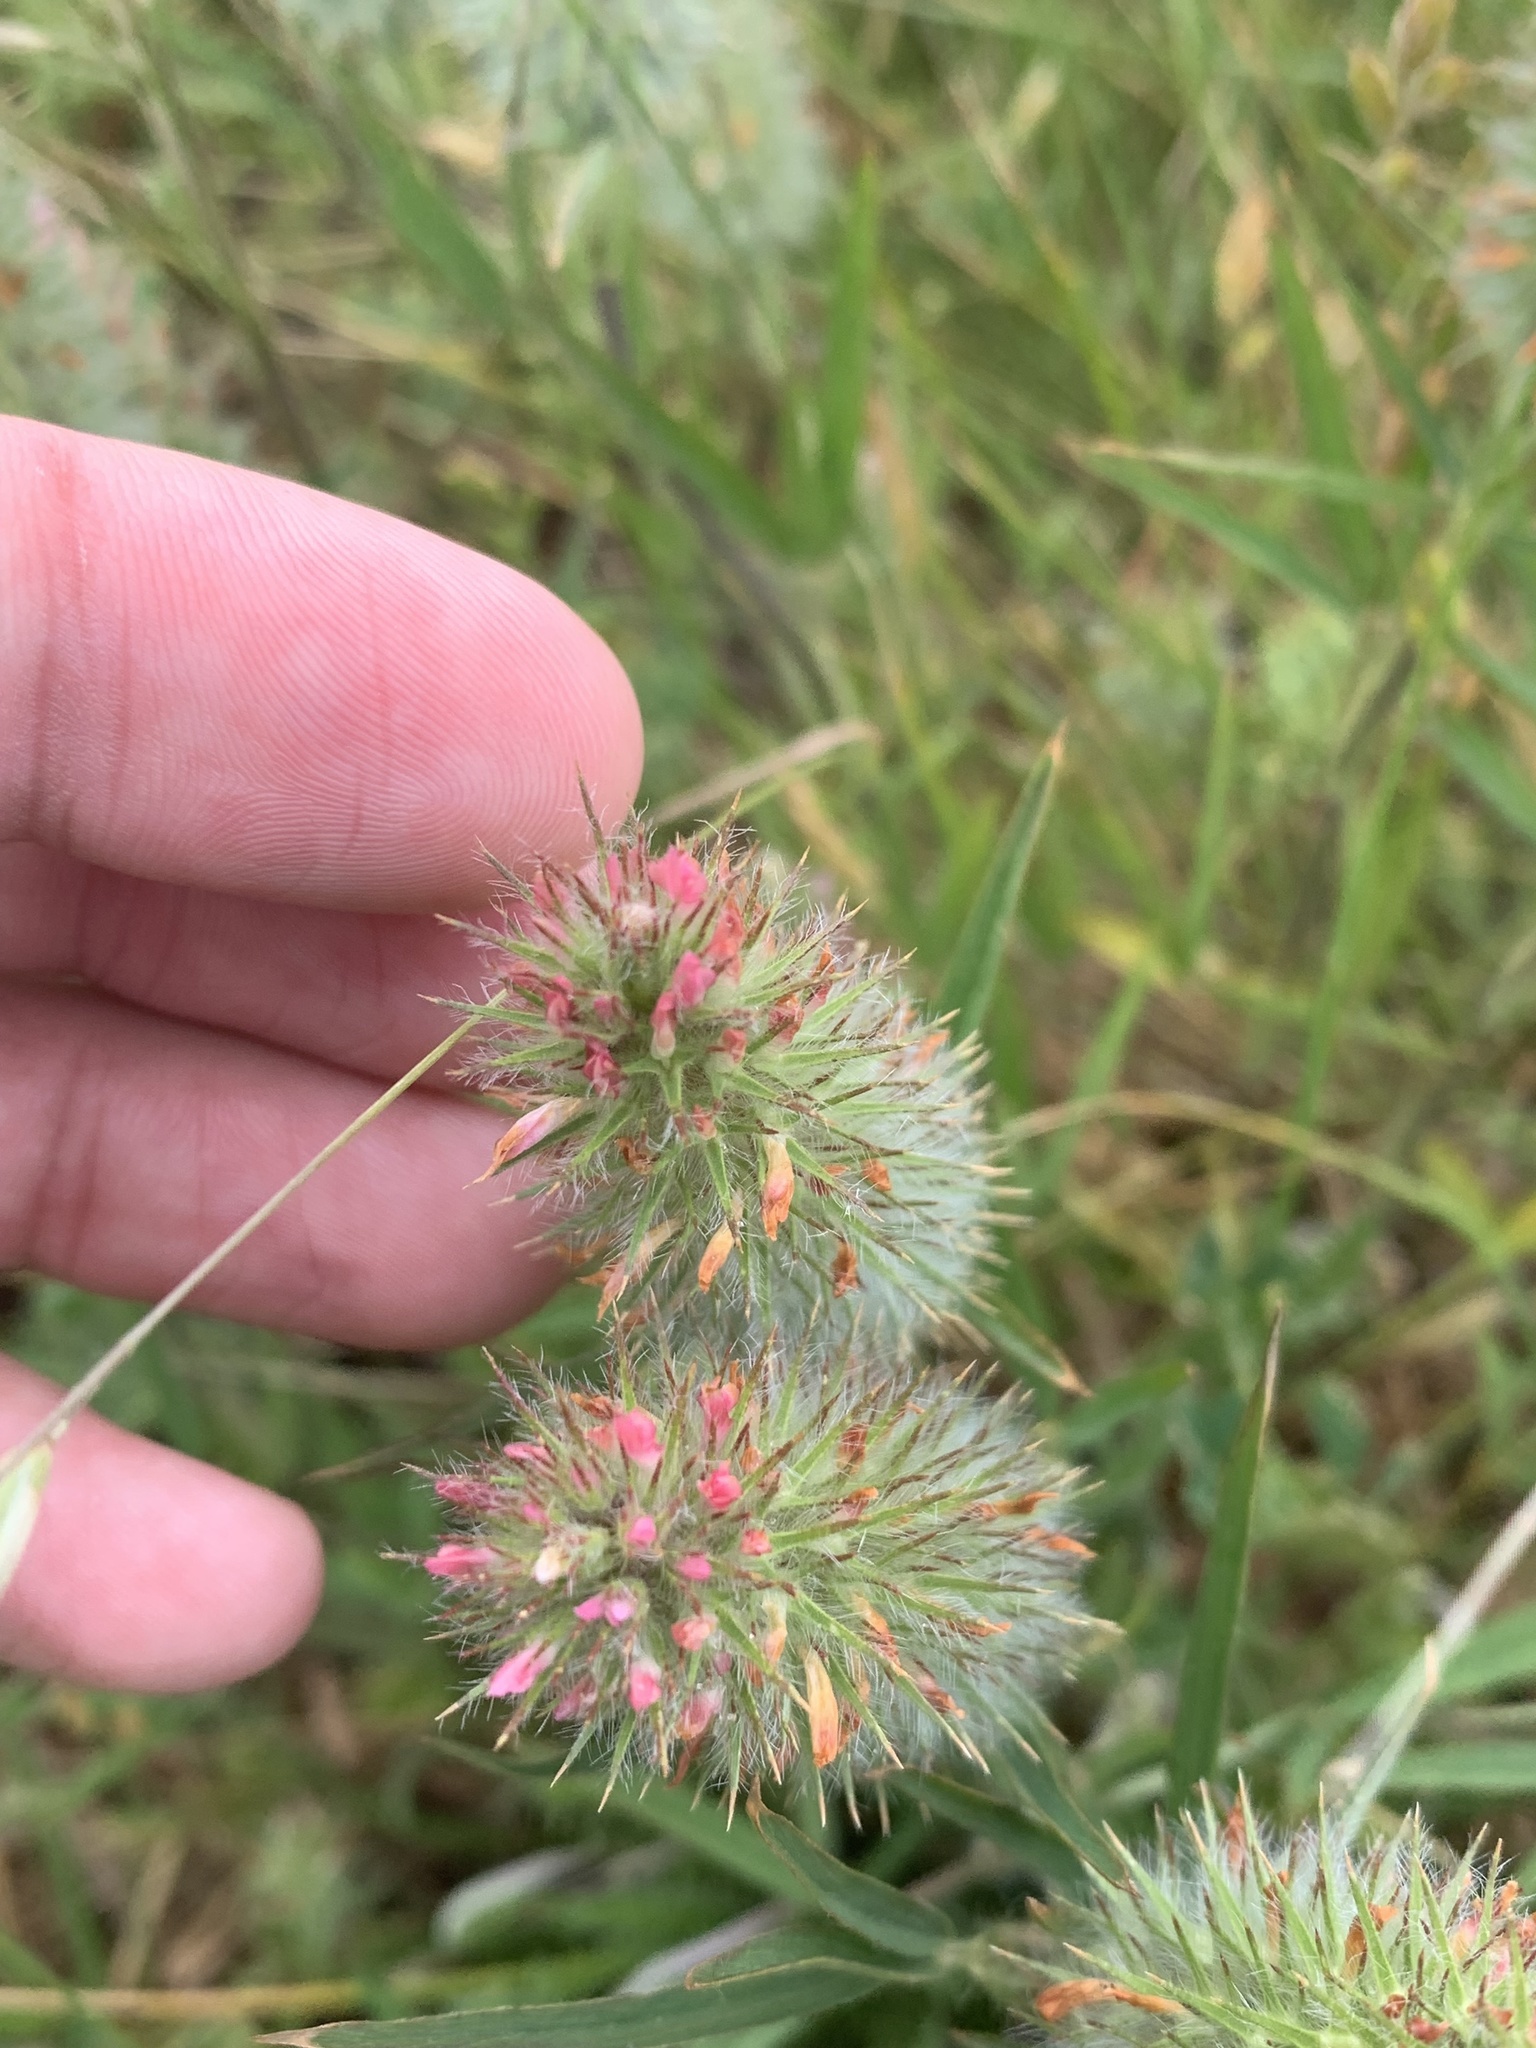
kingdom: Plantae
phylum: Tracheophyta
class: Magnoliopsida
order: Fabales
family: Fabaceae
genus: Trifolium
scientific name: Trifolium angustifolium
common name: Narrow clover
